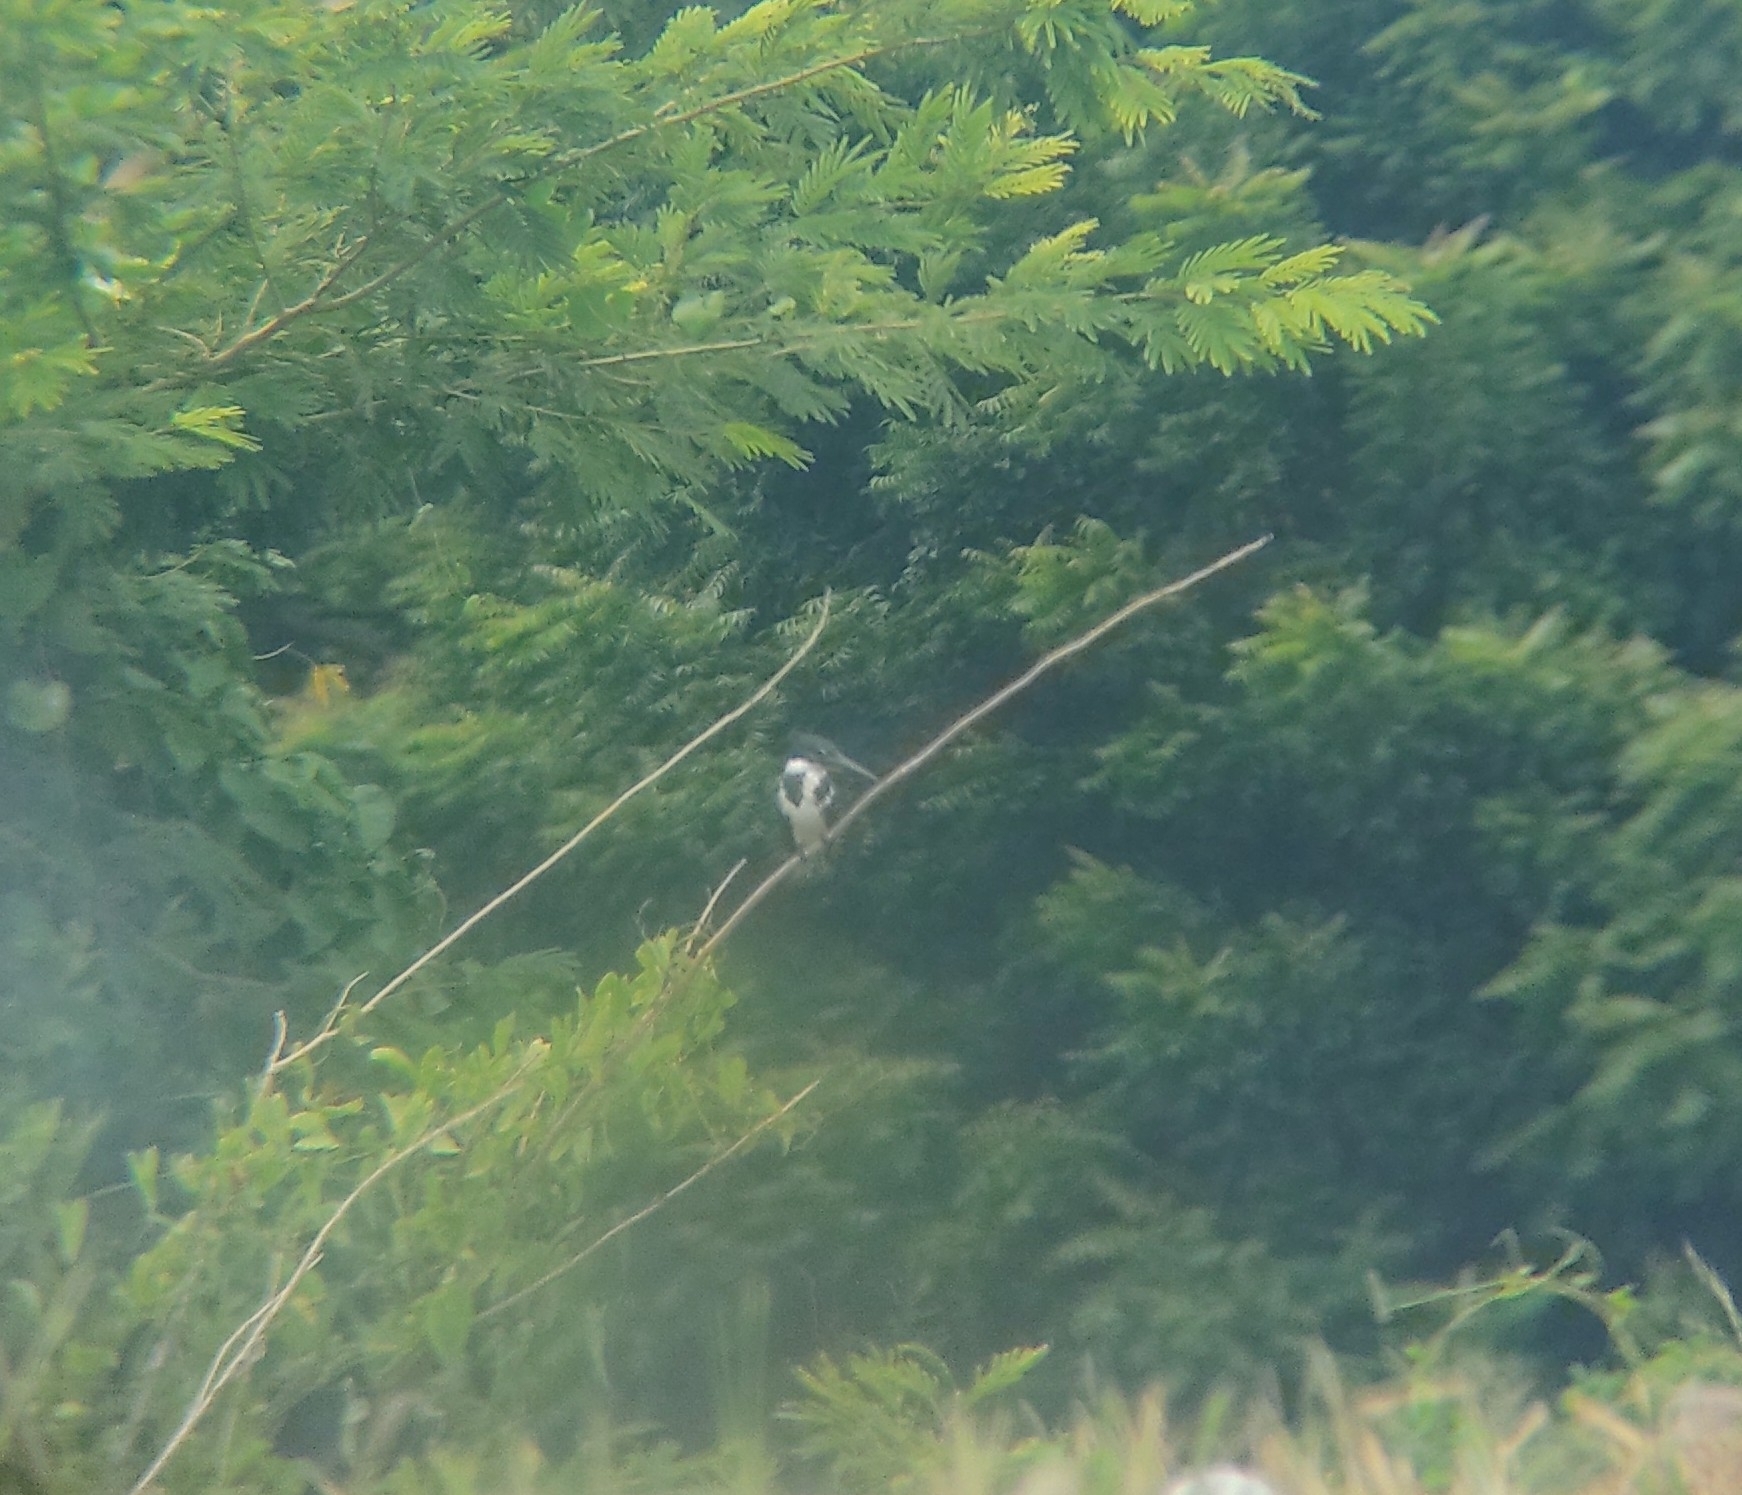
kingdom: Animalia
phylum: Chordata
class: Aves
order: Coraciiformes
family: Alcedinidae
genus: Chloroceryle
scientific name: Chloroceryle amazona
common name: Amazon kingfisher
